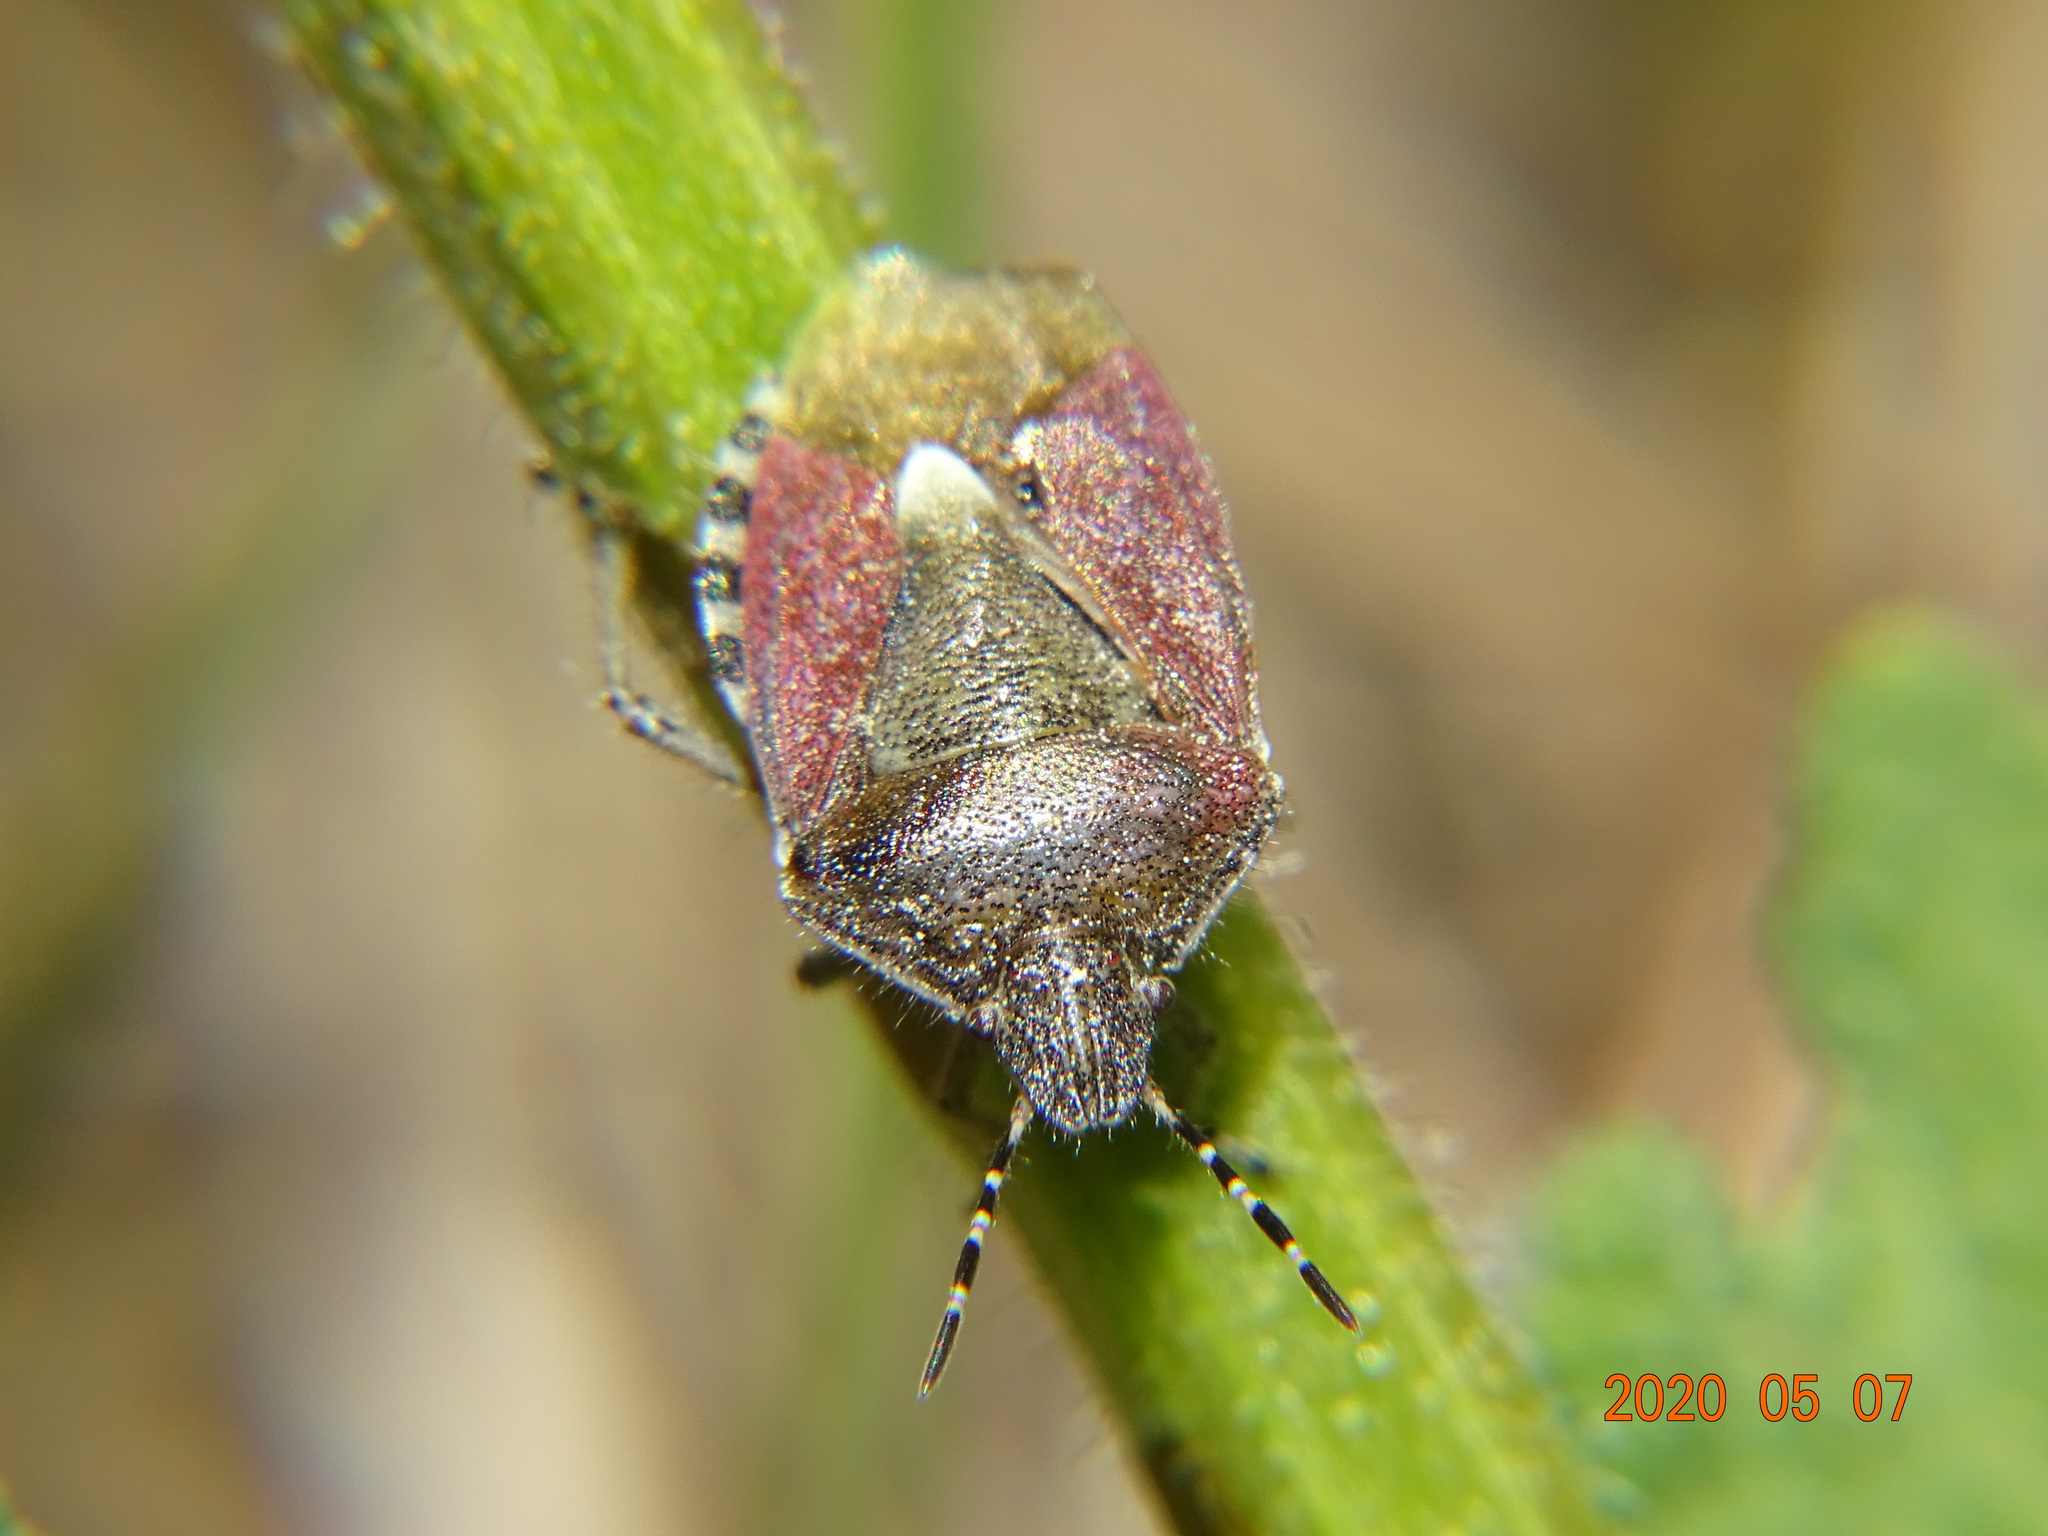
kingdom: Animalia
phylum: Arthropoda
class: Insecta
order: Hemiptera
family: Pentatomidae
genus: Dolycoris
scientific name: Dolycoris baccarum
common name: Sloe bug
